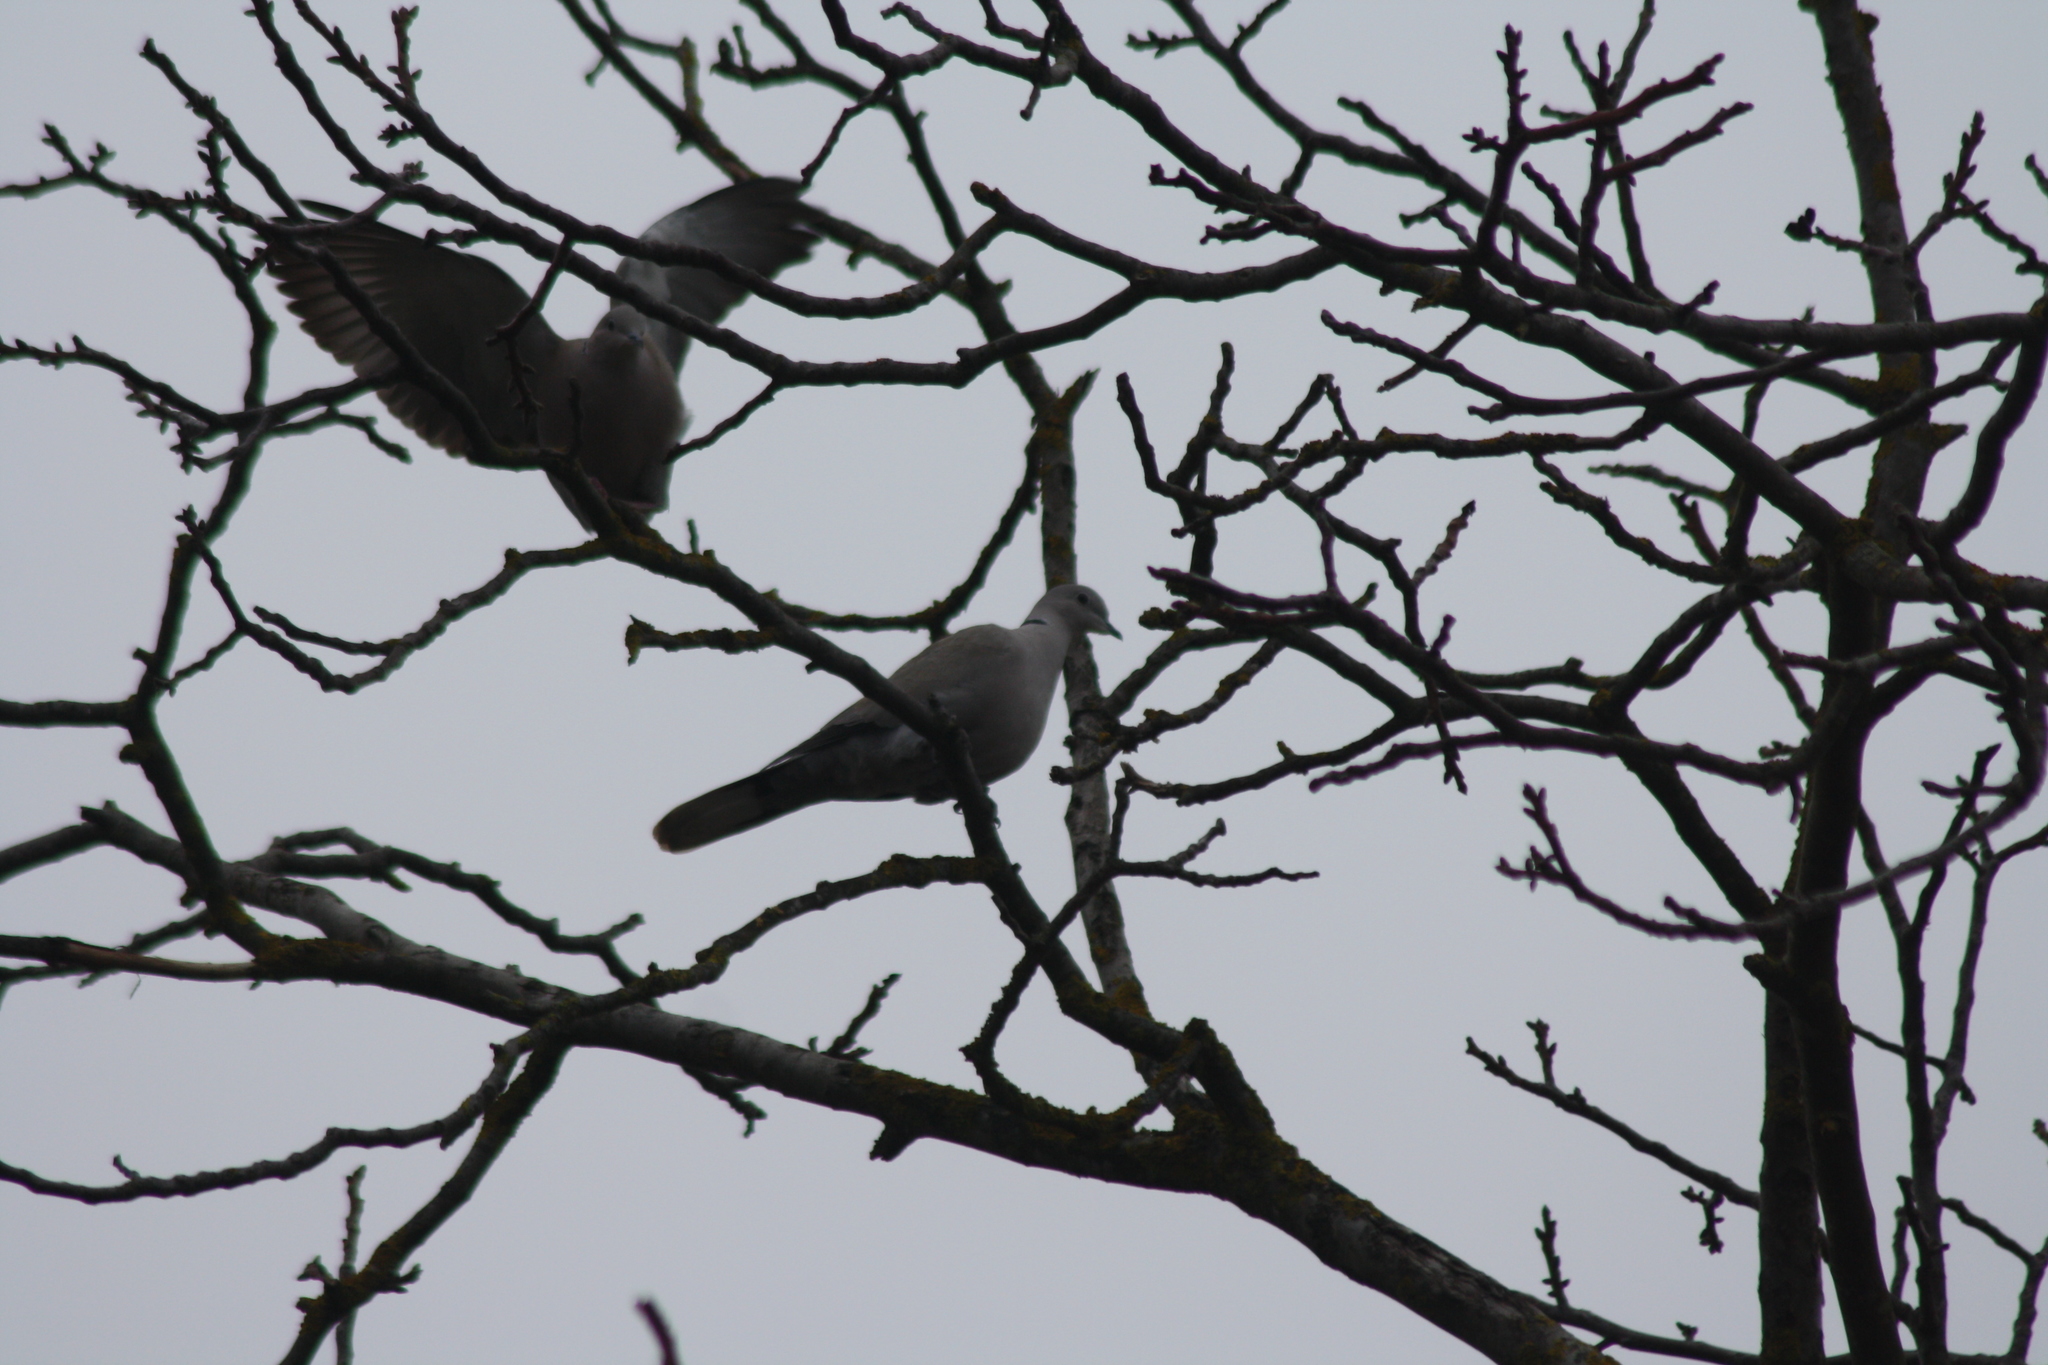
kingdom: Animalia
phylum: Chordata
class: Aves
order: Columbiformes
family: Columbidae
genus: Streptopelia
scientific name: Streptopelia decaocto
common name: Eurasian collared dove
